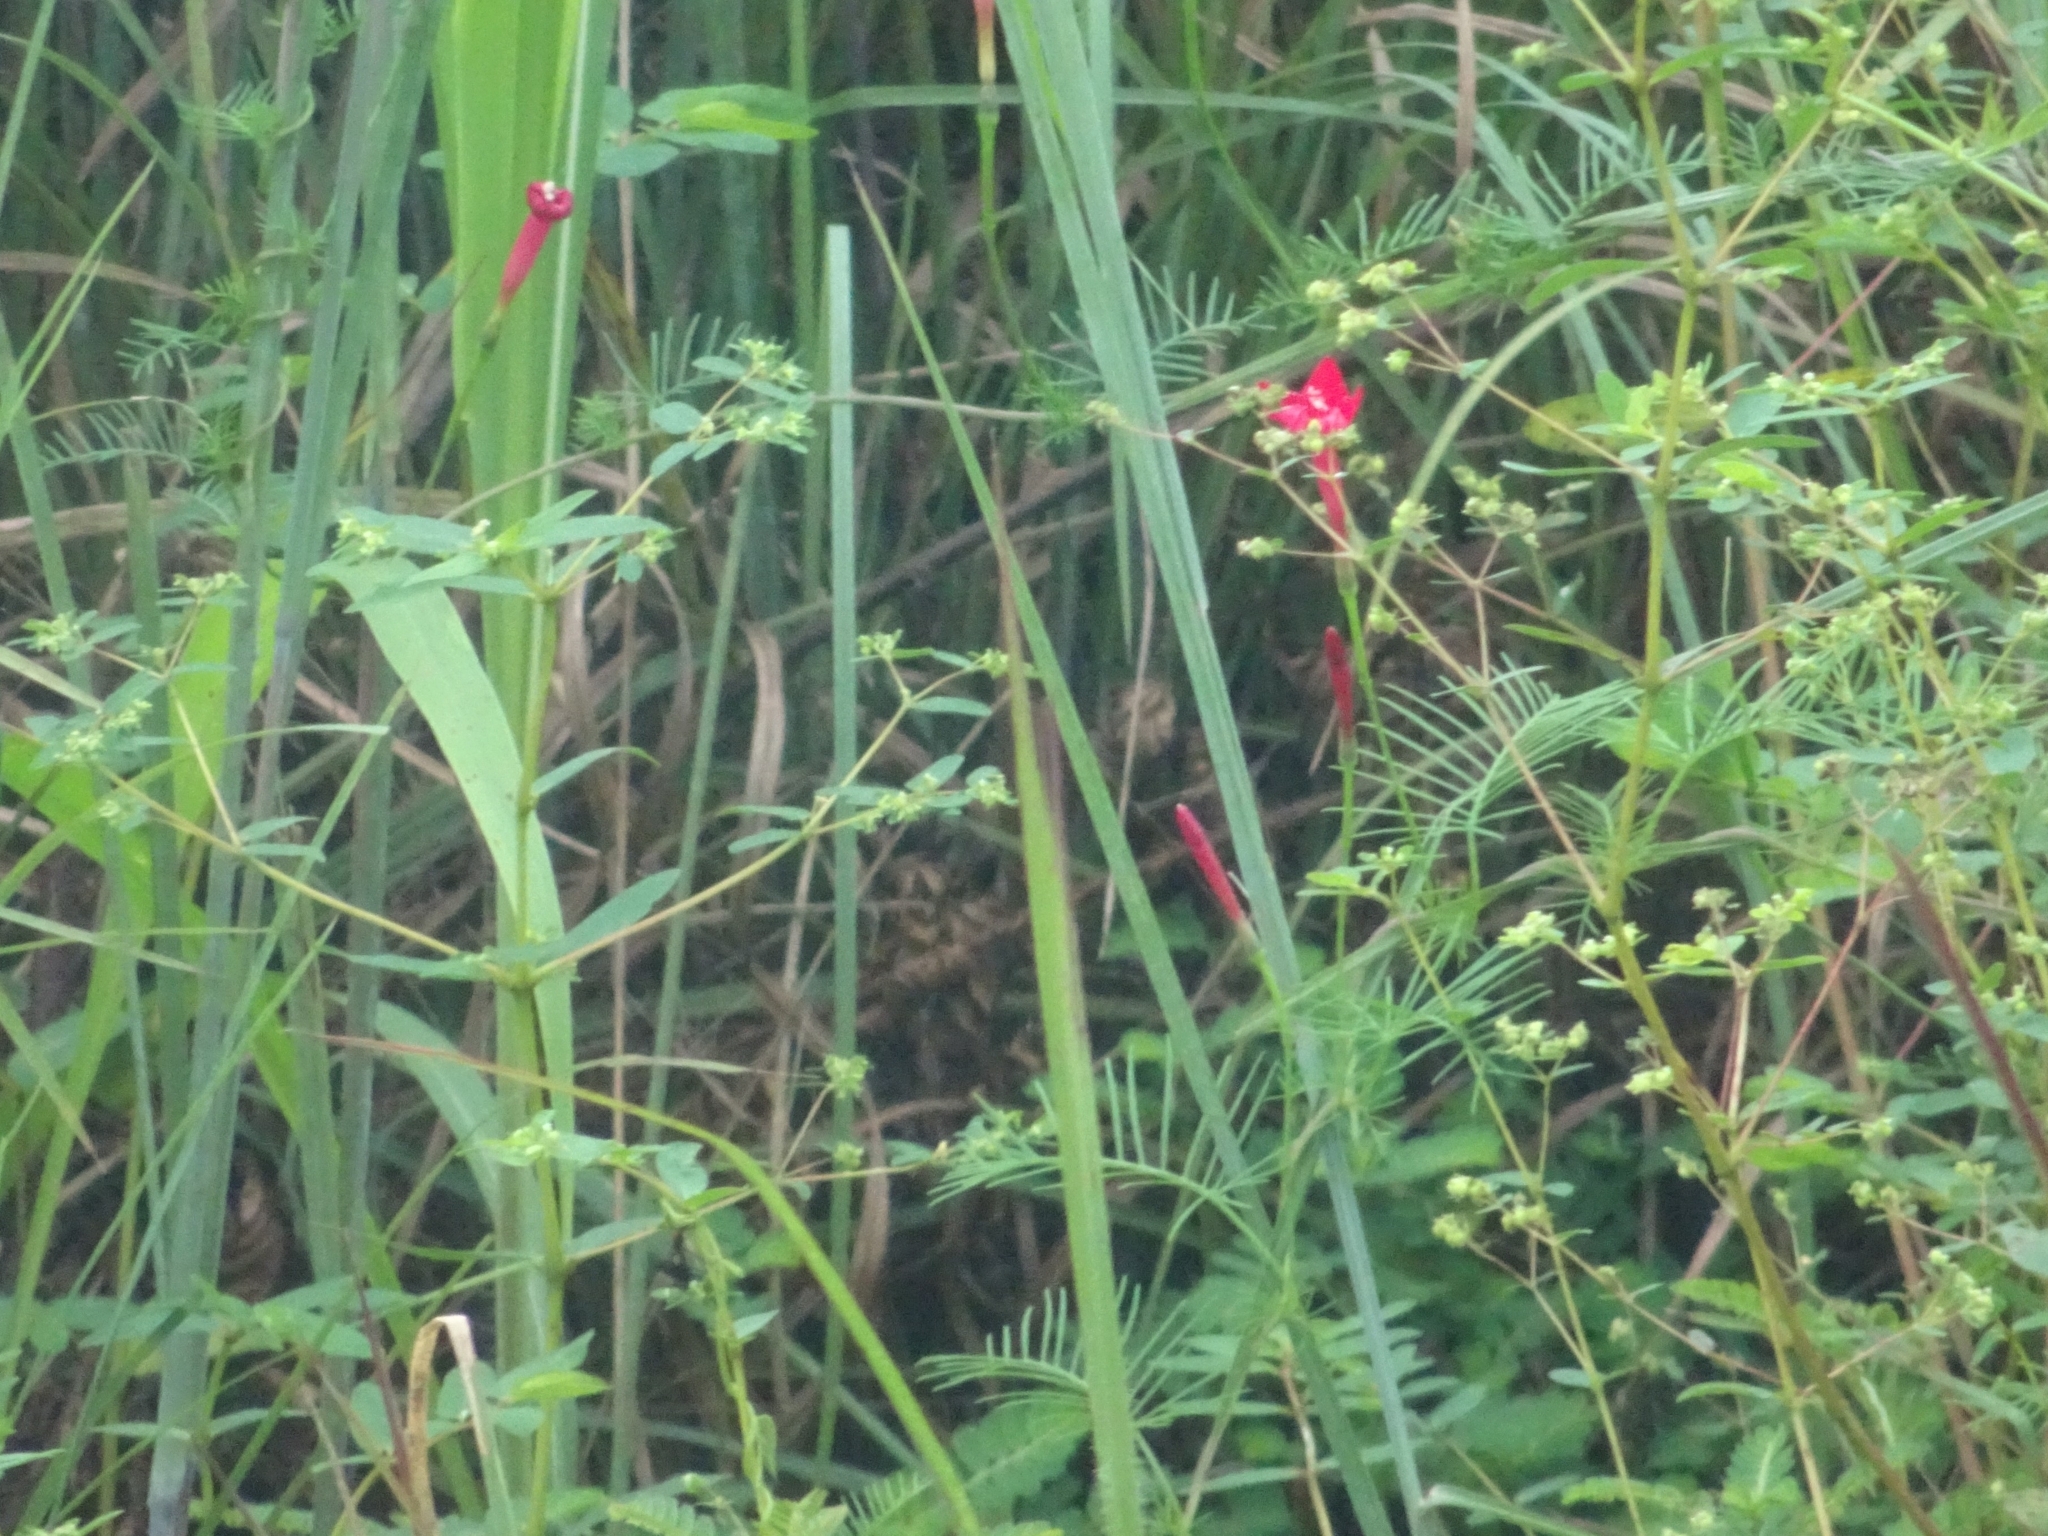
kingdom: Plantae
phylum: Tracheophyta
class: Magnoliopsida
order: Solanales
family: Convolvulaceae
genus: Ipomoea
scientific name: Ipomoea quamoclit
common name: Cypress vine
